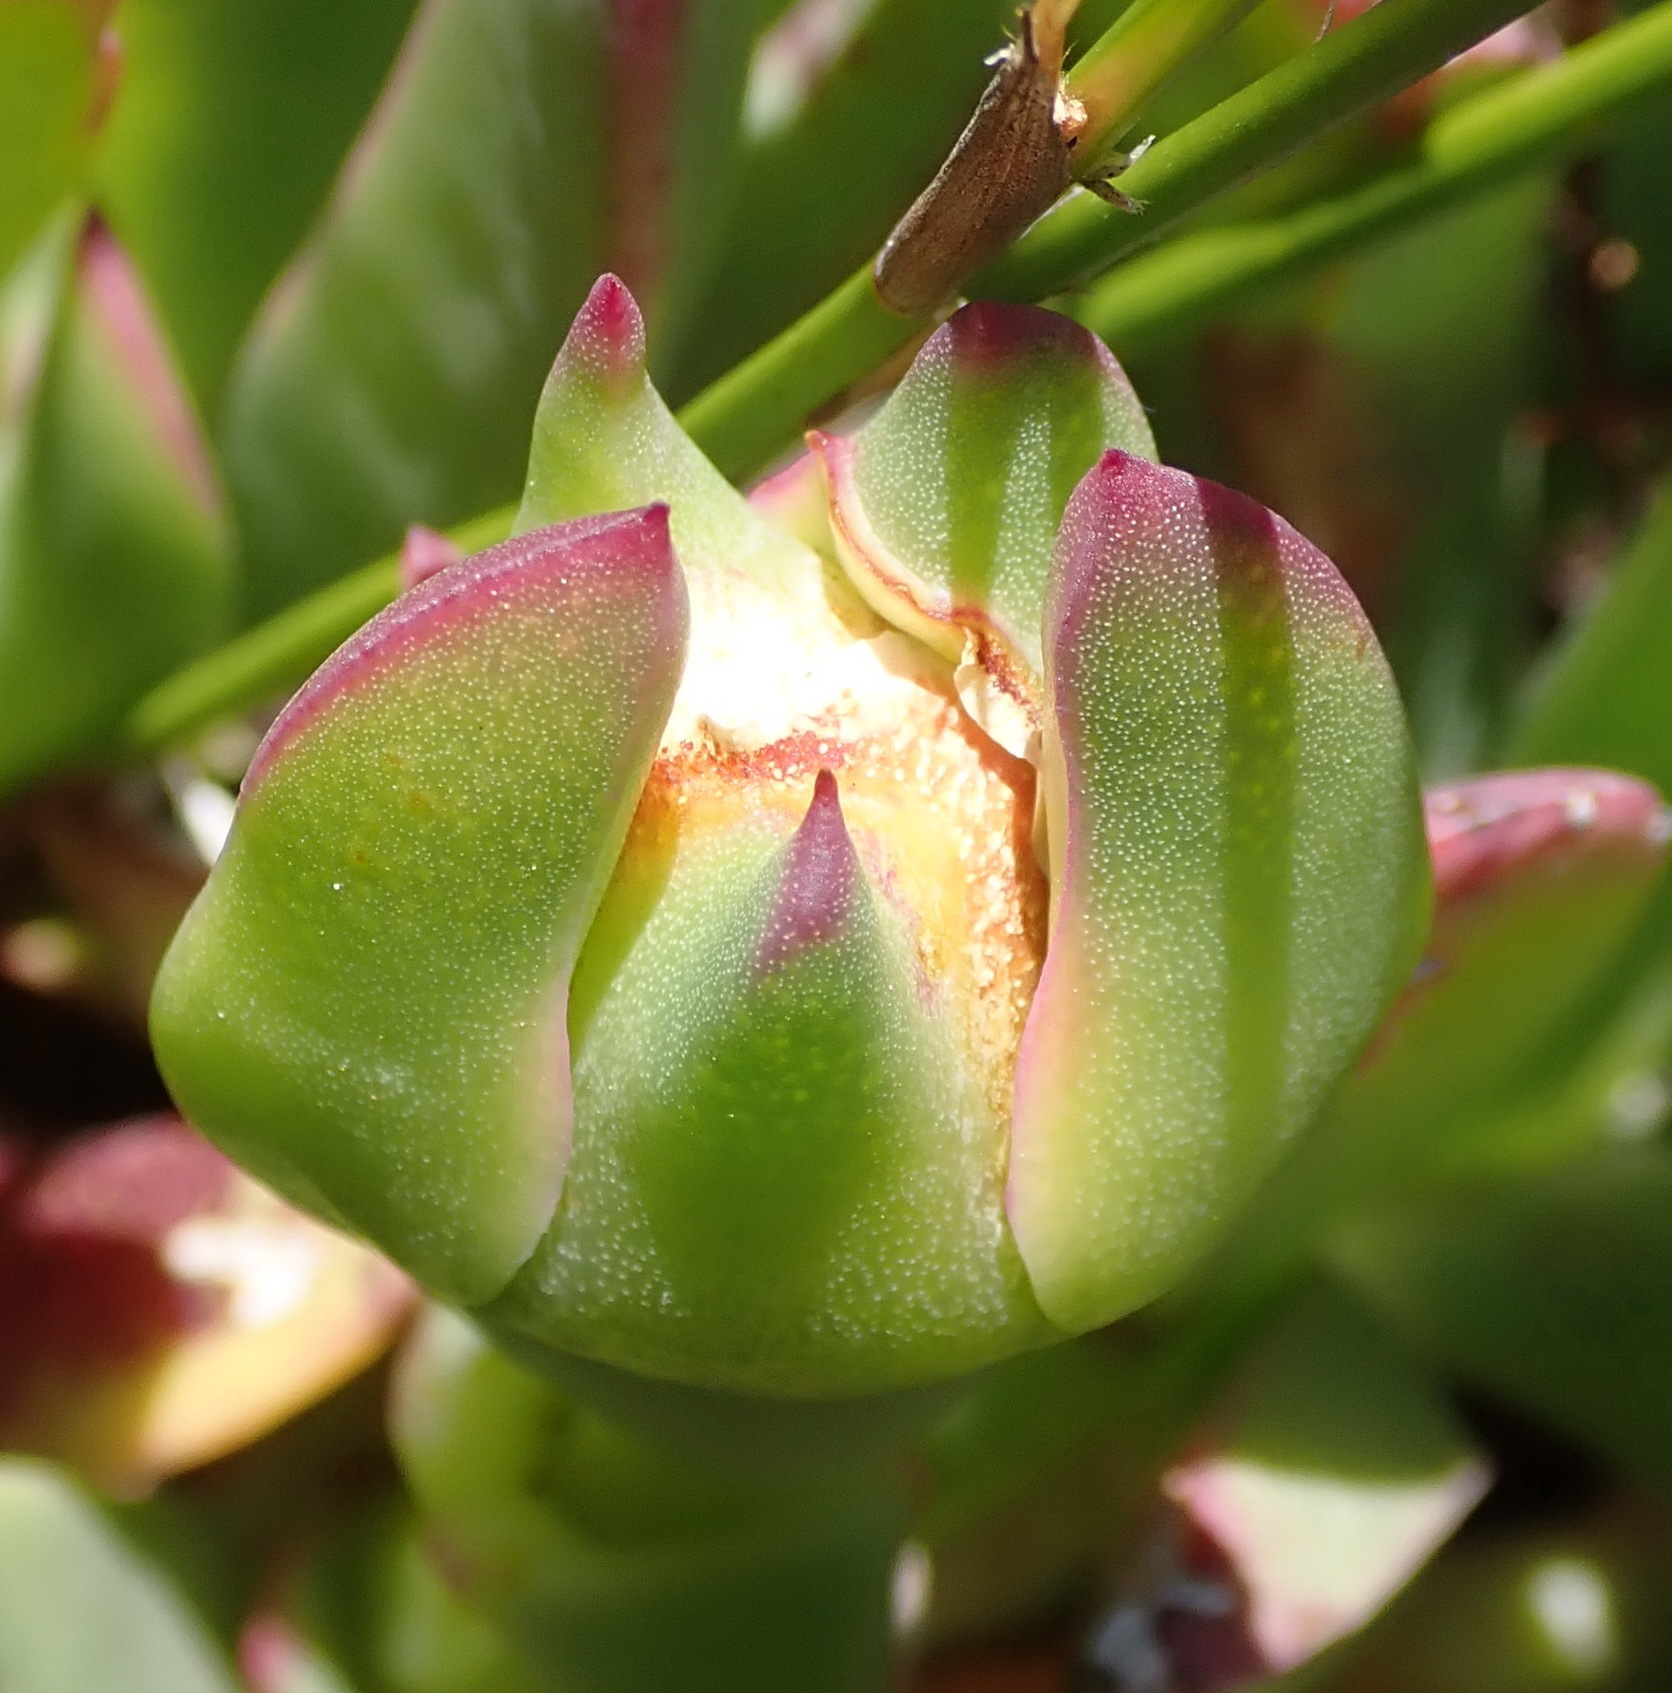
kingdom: Plantae
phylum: Tracheophyta
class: Magnoliopsida
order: Caryophyllales
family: Aizoaceae
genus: Carpobrotus
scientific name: Carpobrotus mellei
